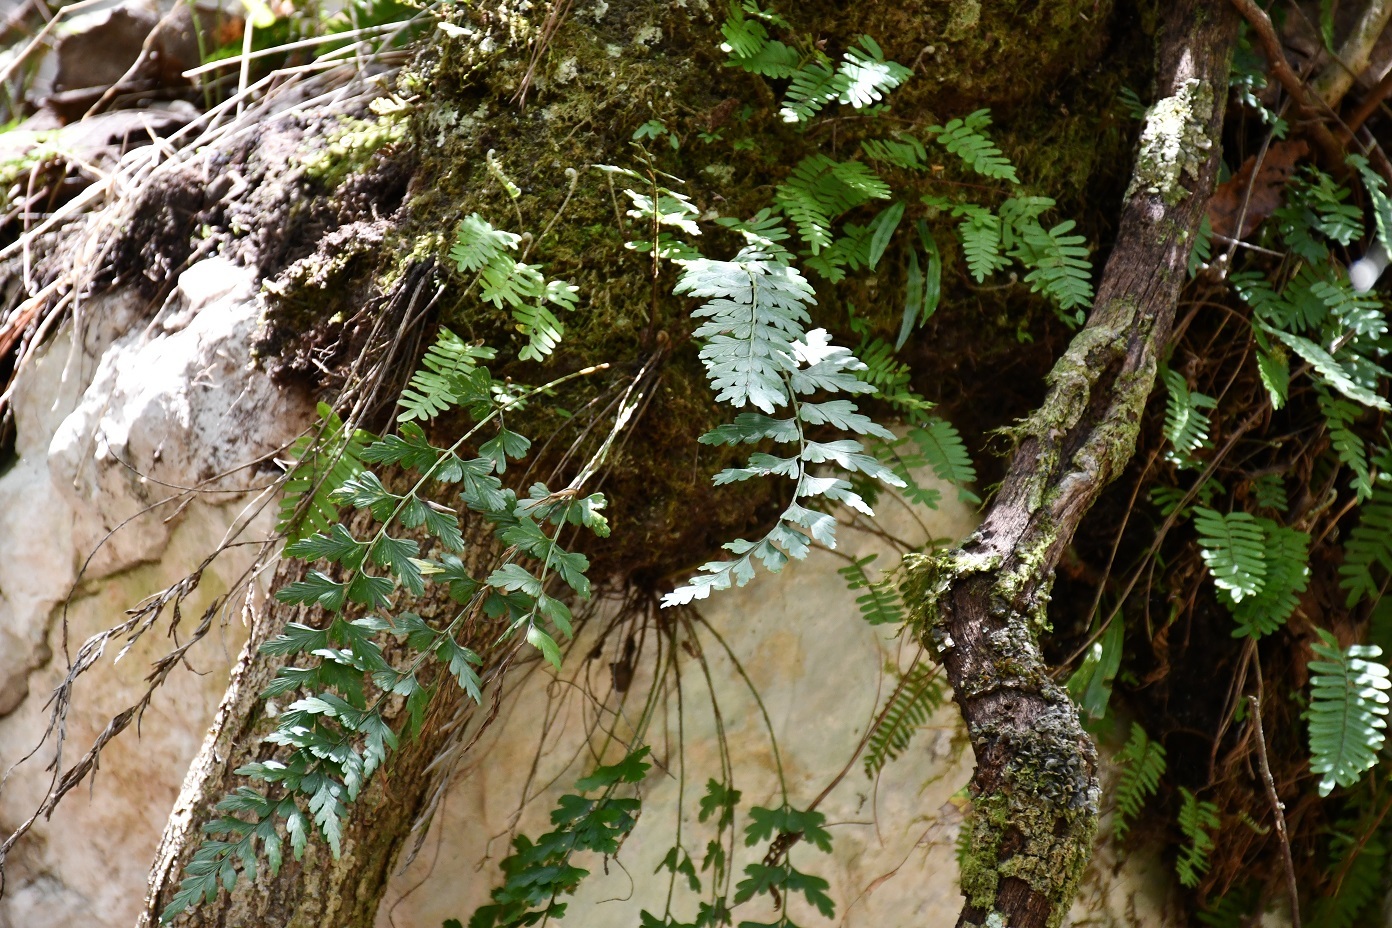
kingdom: Plantae
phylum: Tracheophyta
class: Polypodiopsida
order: Polypodiales
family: Aspleniaceae
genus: Asplenium
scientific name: Asplenium praemorsum
